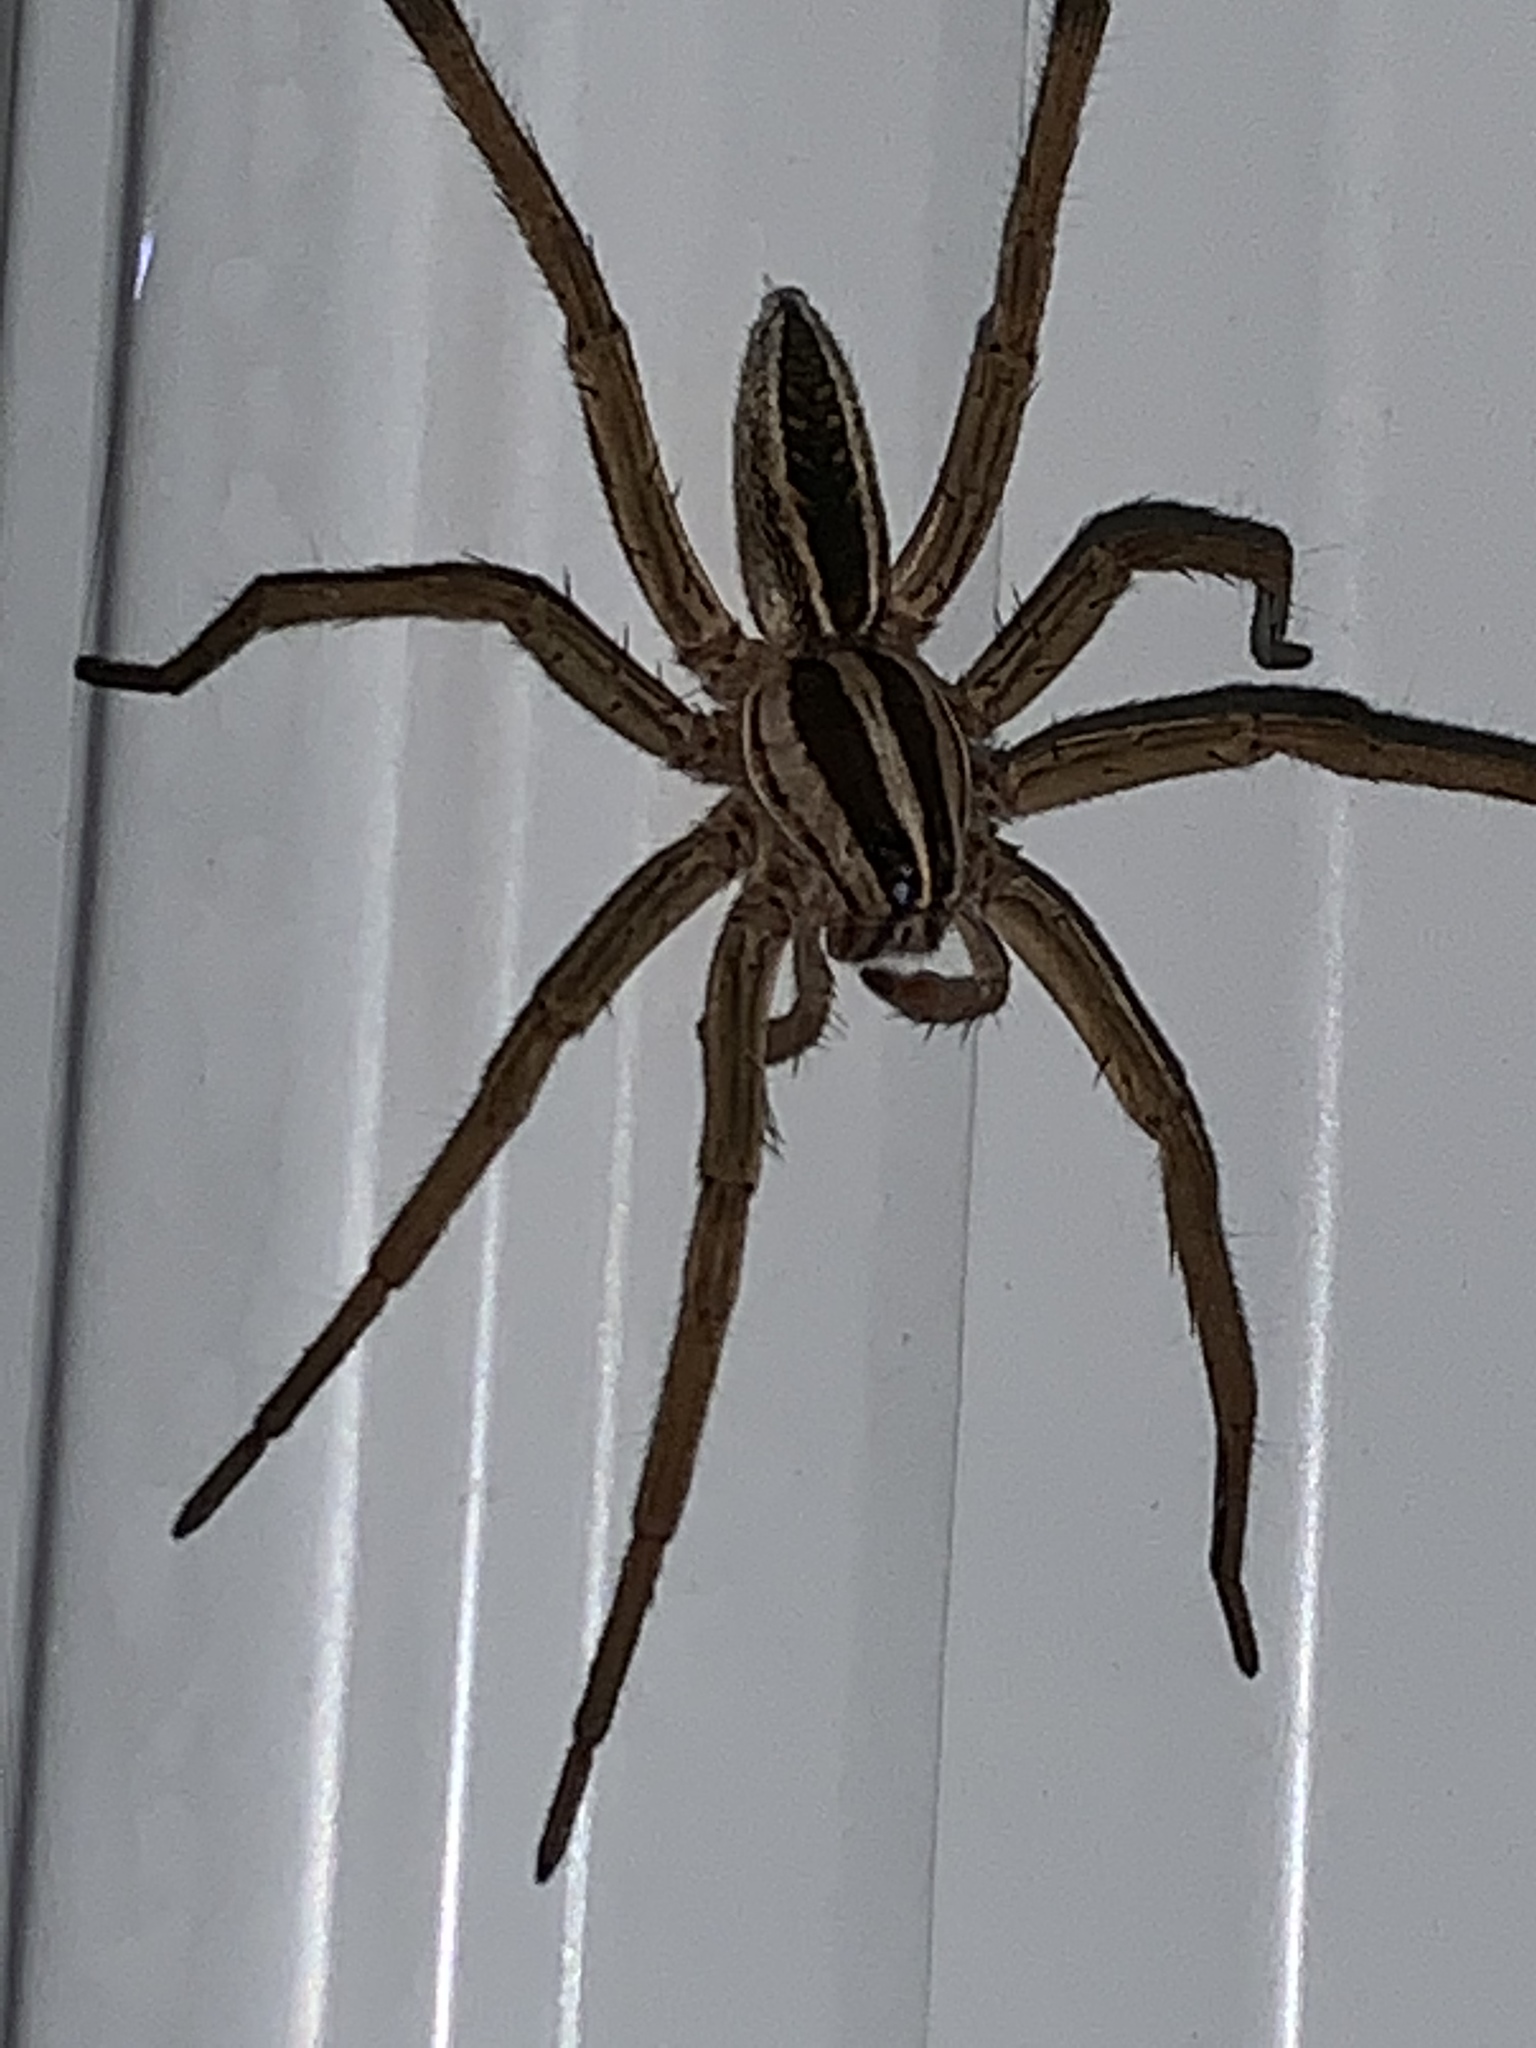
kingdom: Animalia
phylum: Arthropoda
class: Arachnida
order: Araneae
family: Lycosidae
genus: Rabidosa
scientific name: Rabidosa rabida
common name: Rabid wolf spider
